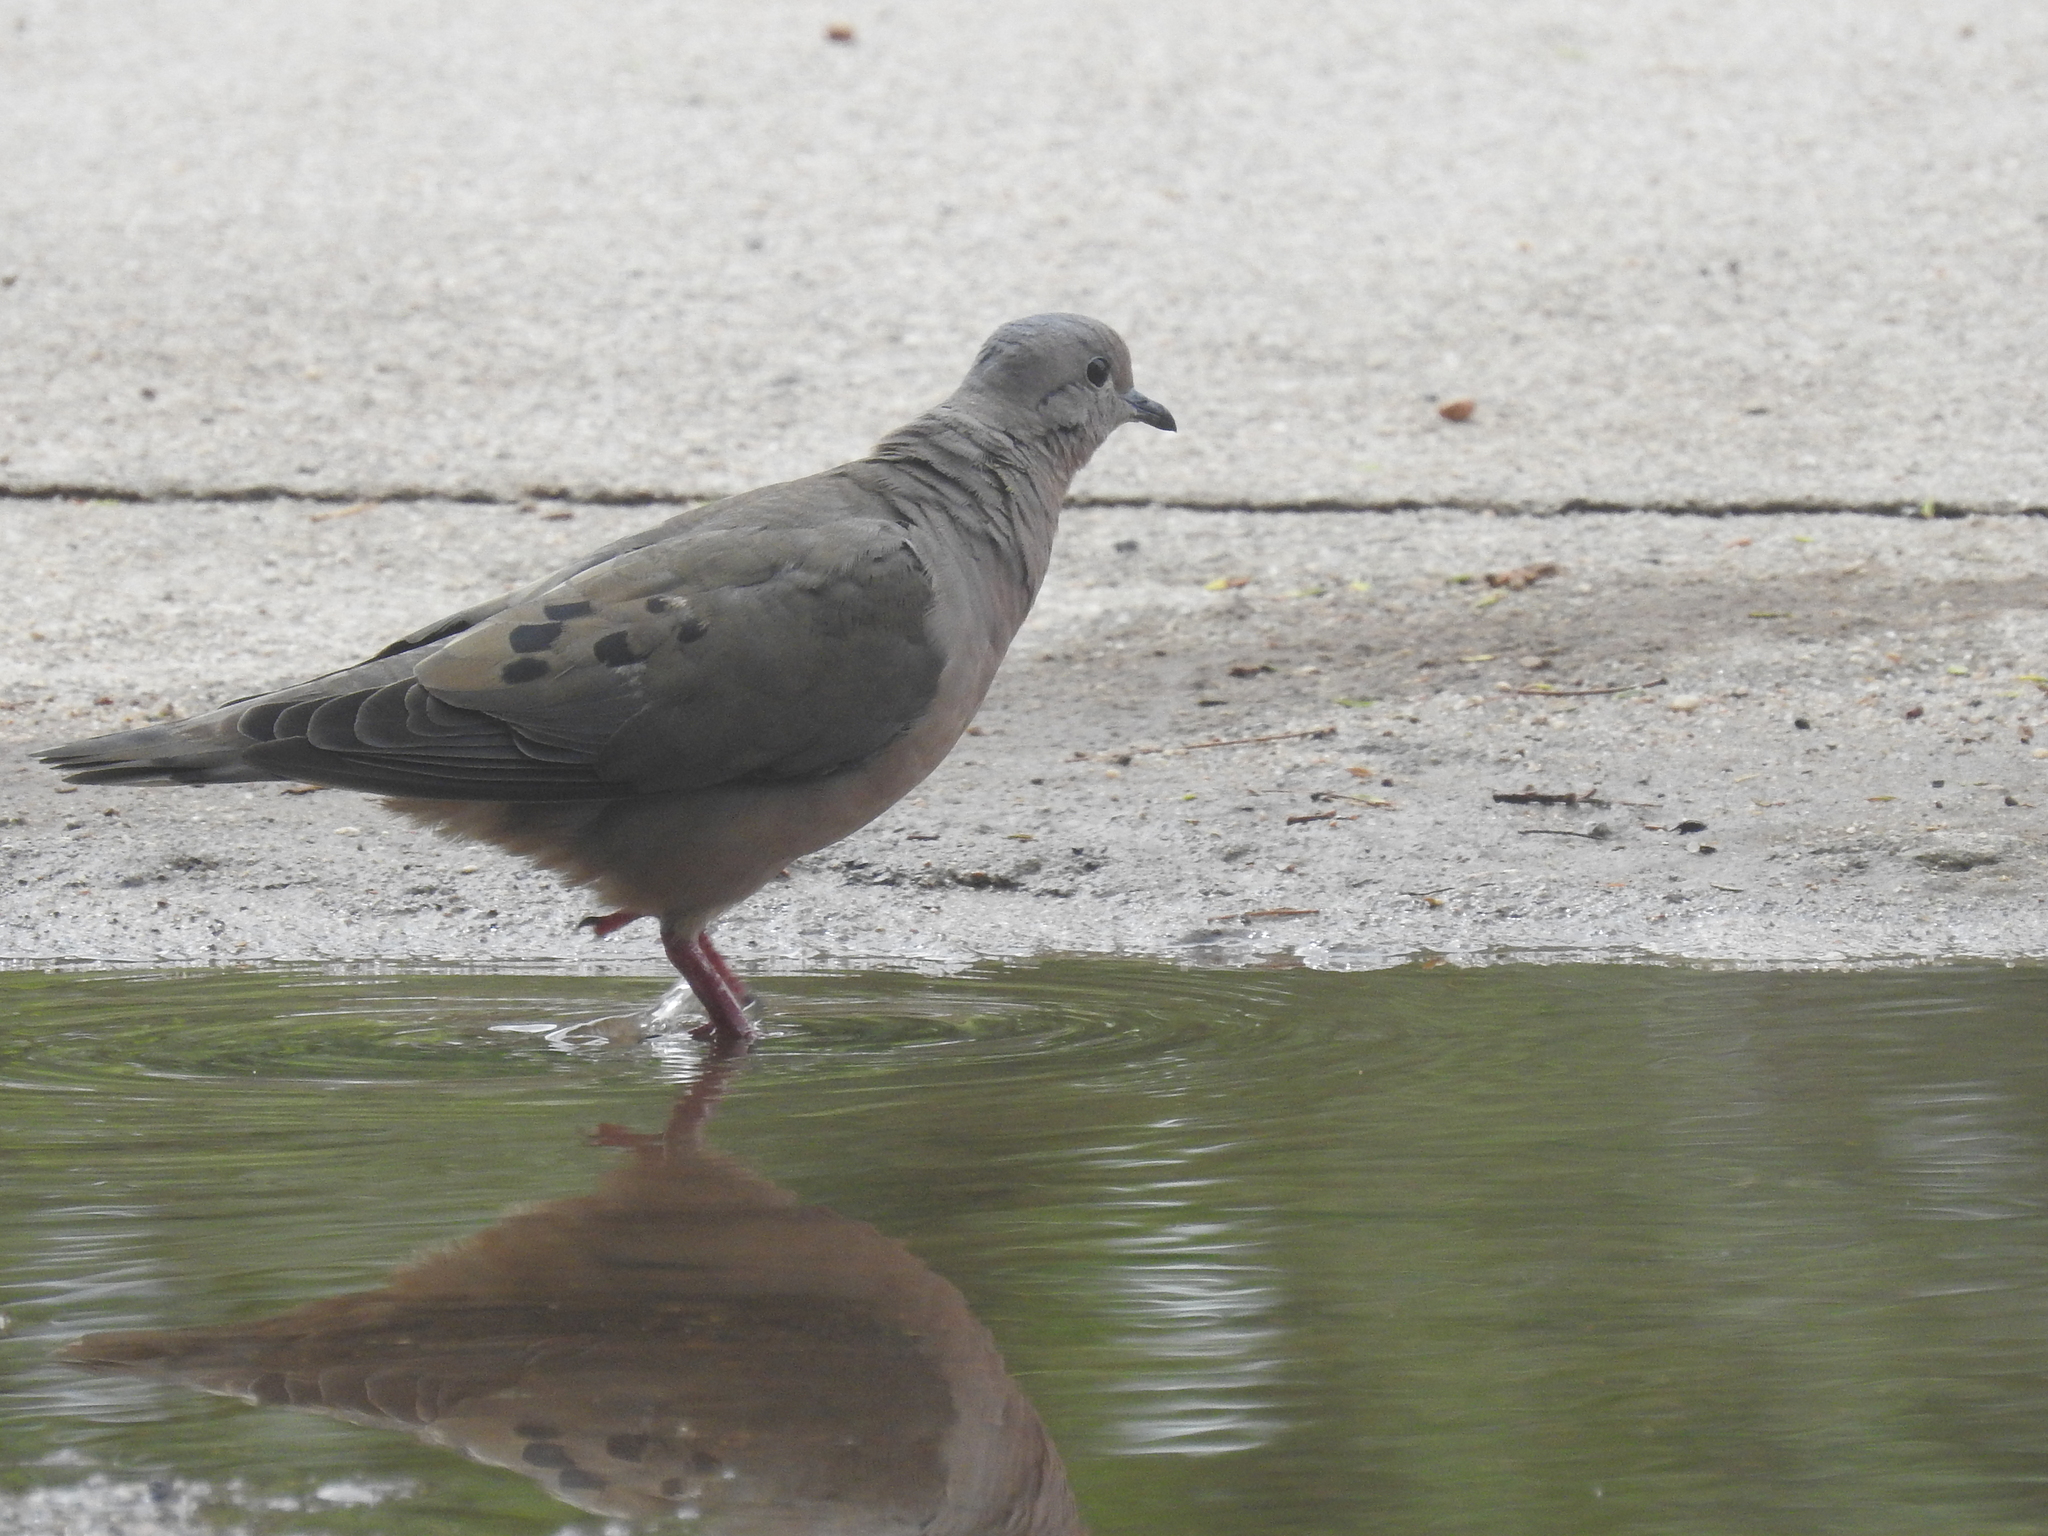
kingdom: Animalia
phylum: Chordata
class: Aves
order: Columbiformes
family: Columbidae
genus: Zenaida
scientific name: Zenaida auriculata
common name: Eared dove
